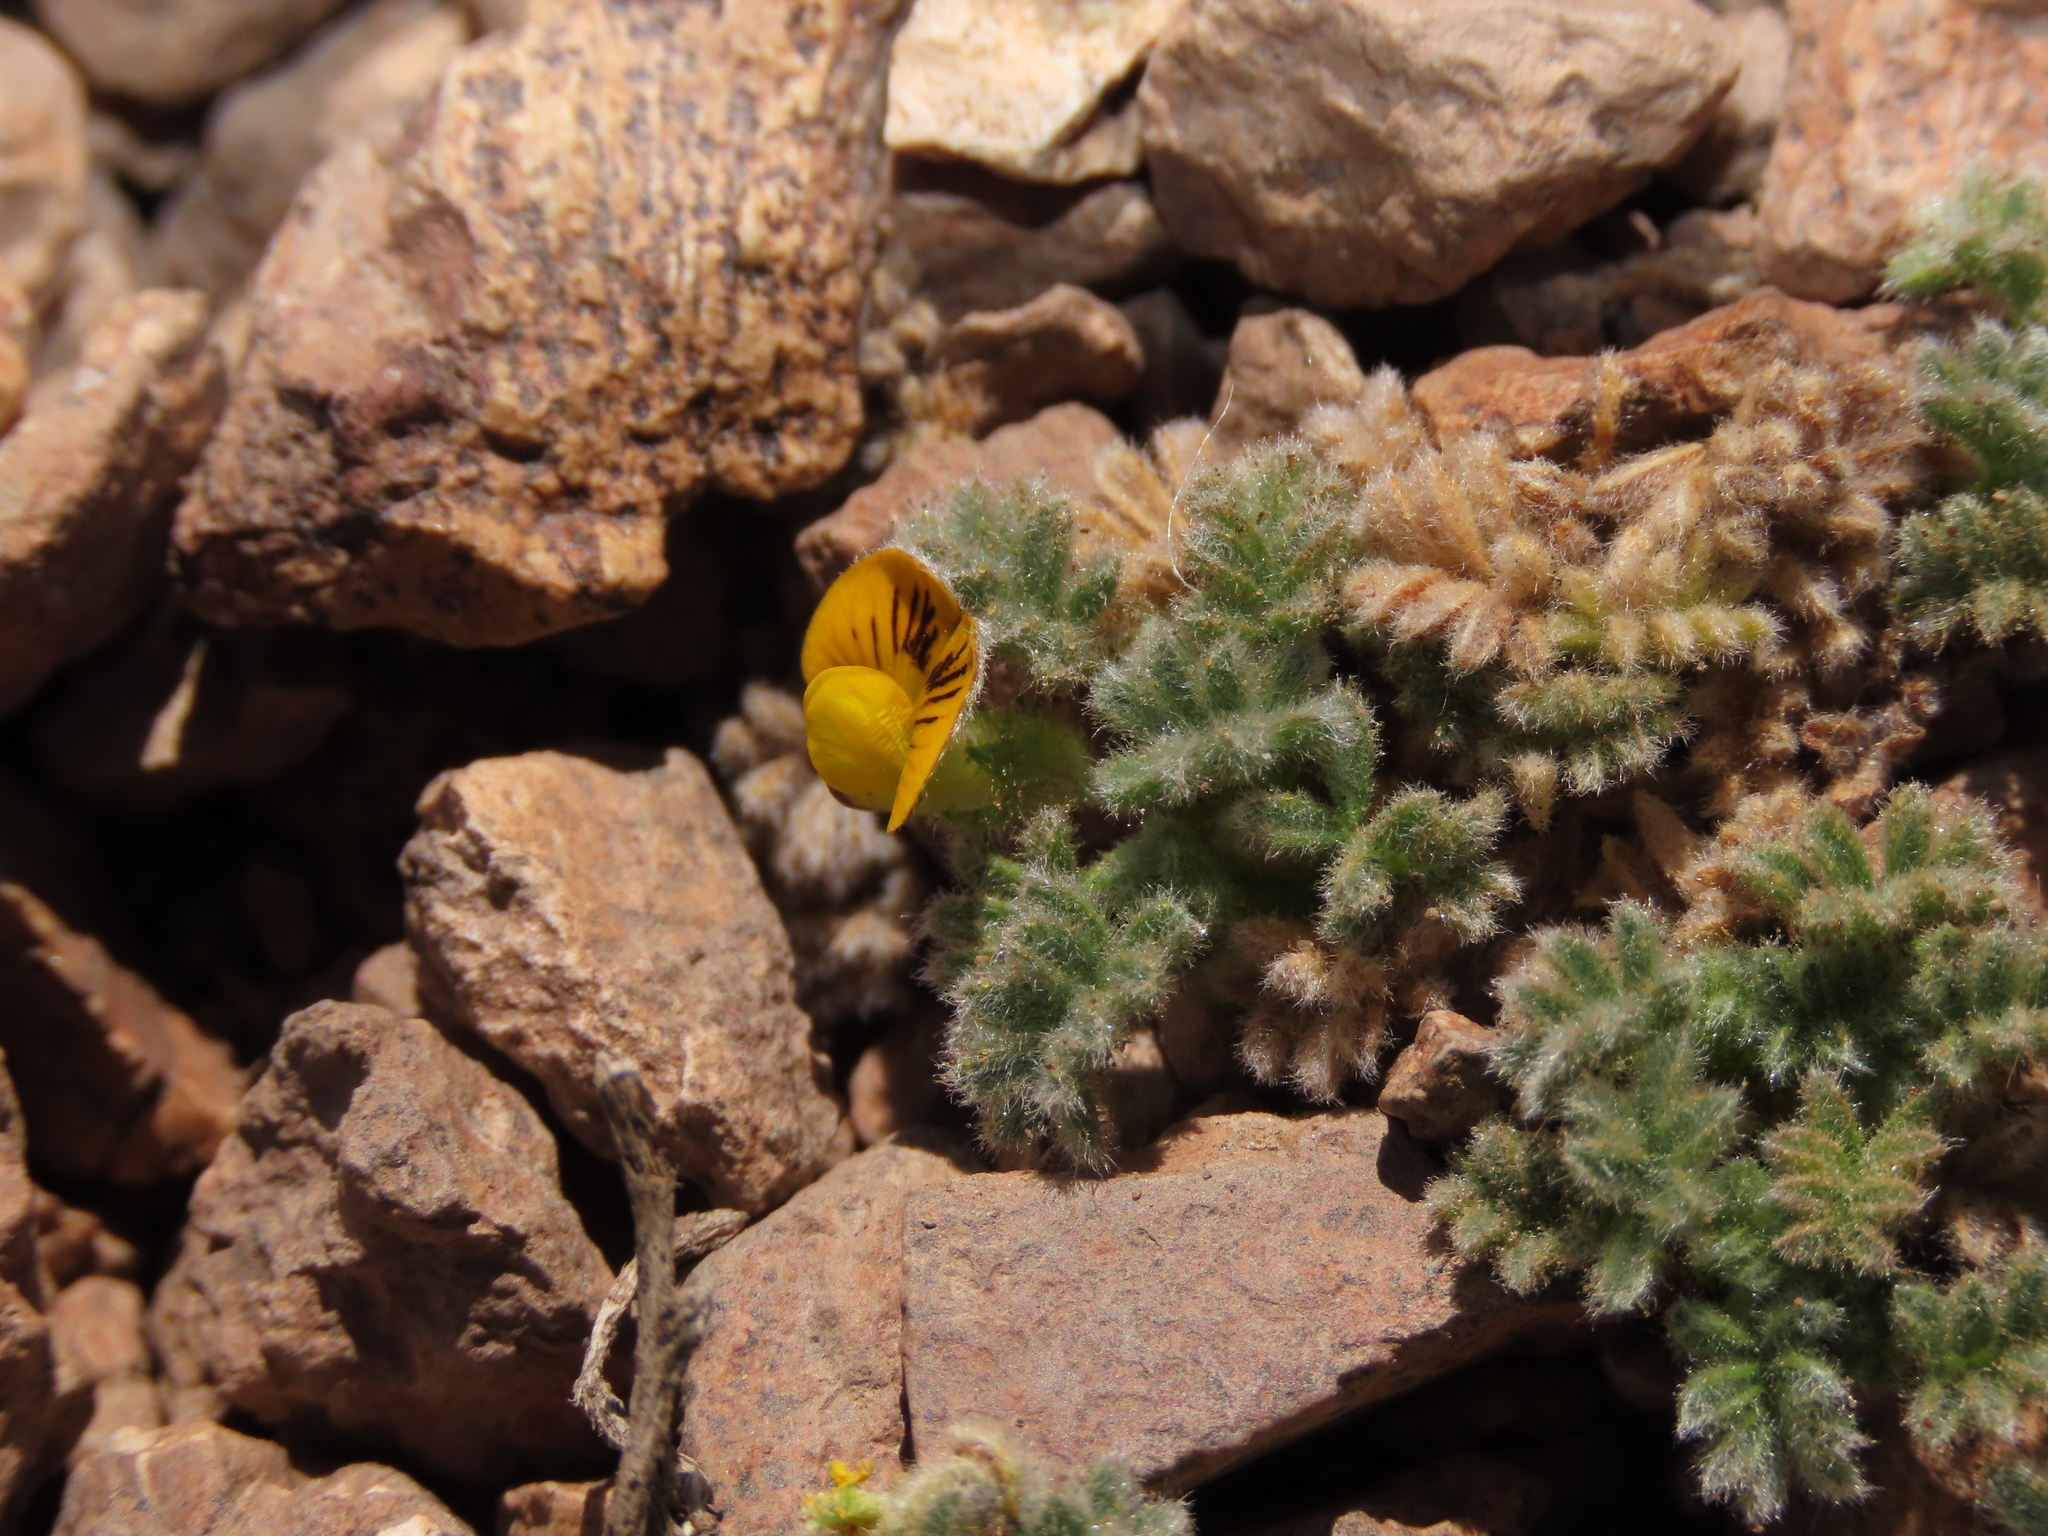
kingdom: Plantae
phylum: Tracheophyta
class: Magnoliopsida
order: Fabales
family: Fabaceae
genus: Adesmia
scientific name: Adesmia glomerula
